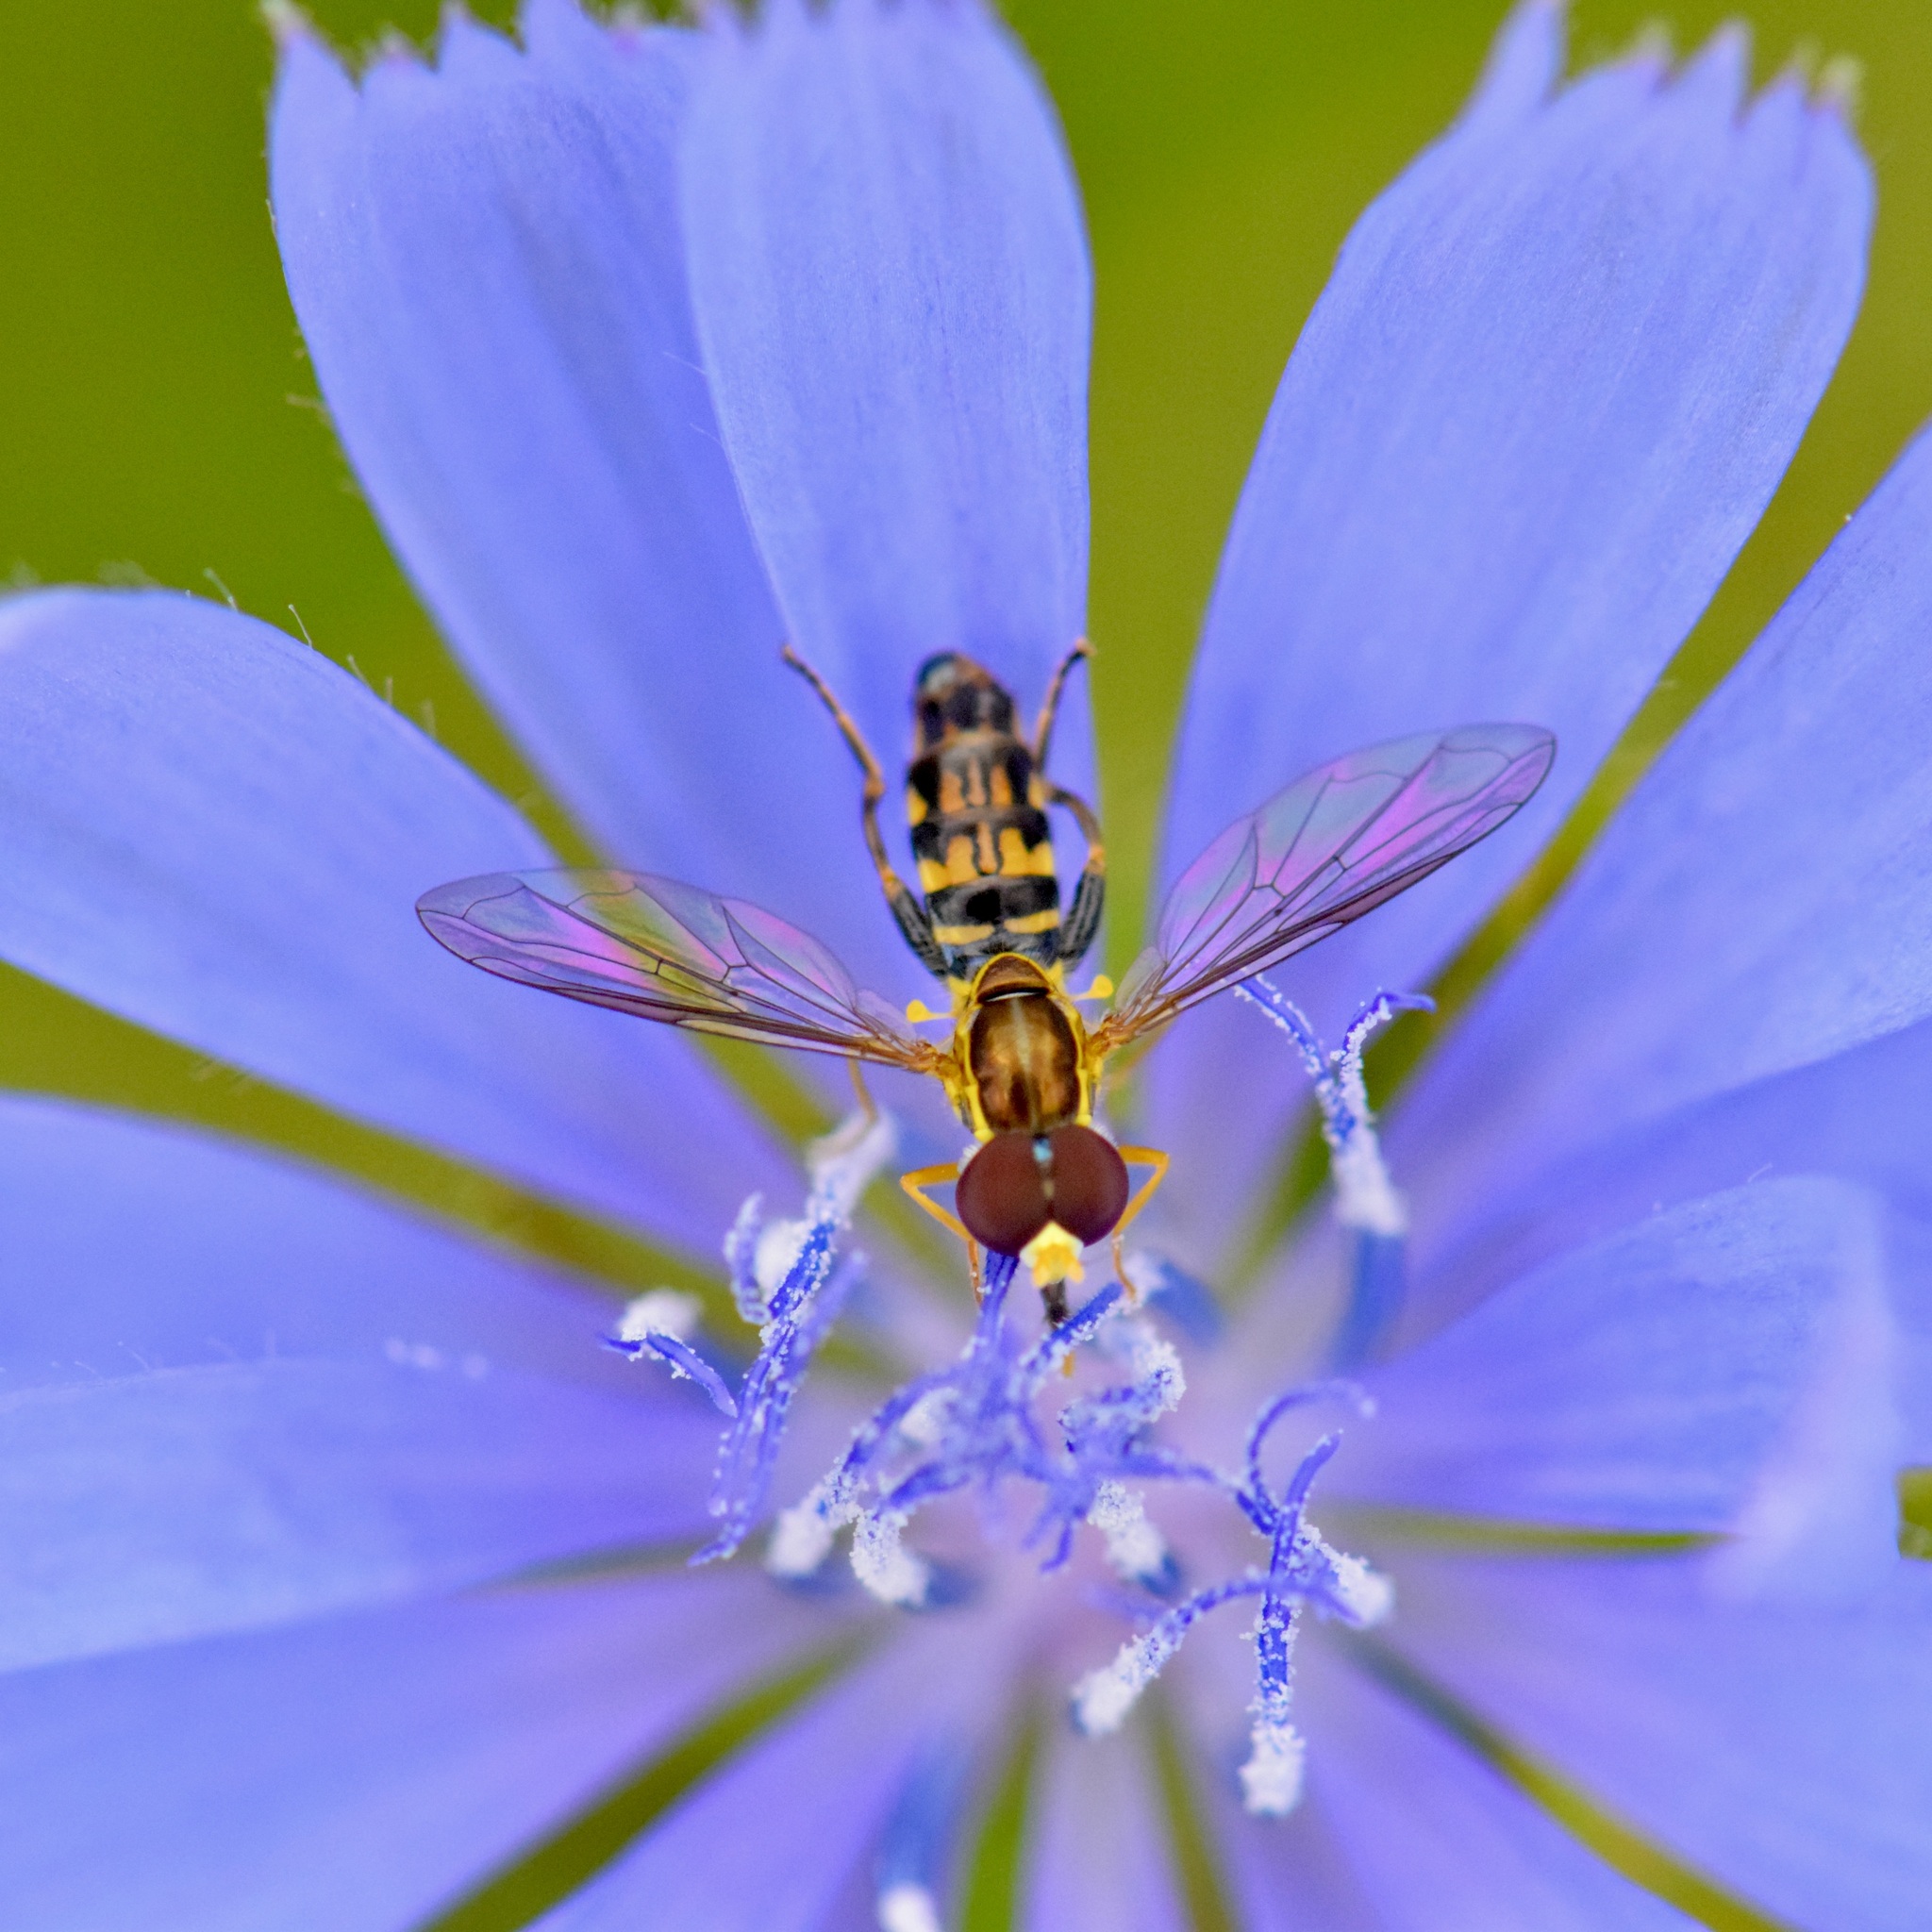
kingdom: Animalia
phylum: Arthropoda
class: Insecta
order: Diptera
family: Syrphidae
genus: Toxomerus
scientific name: Toxomerus geminatus
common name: Eastern calligrapher
